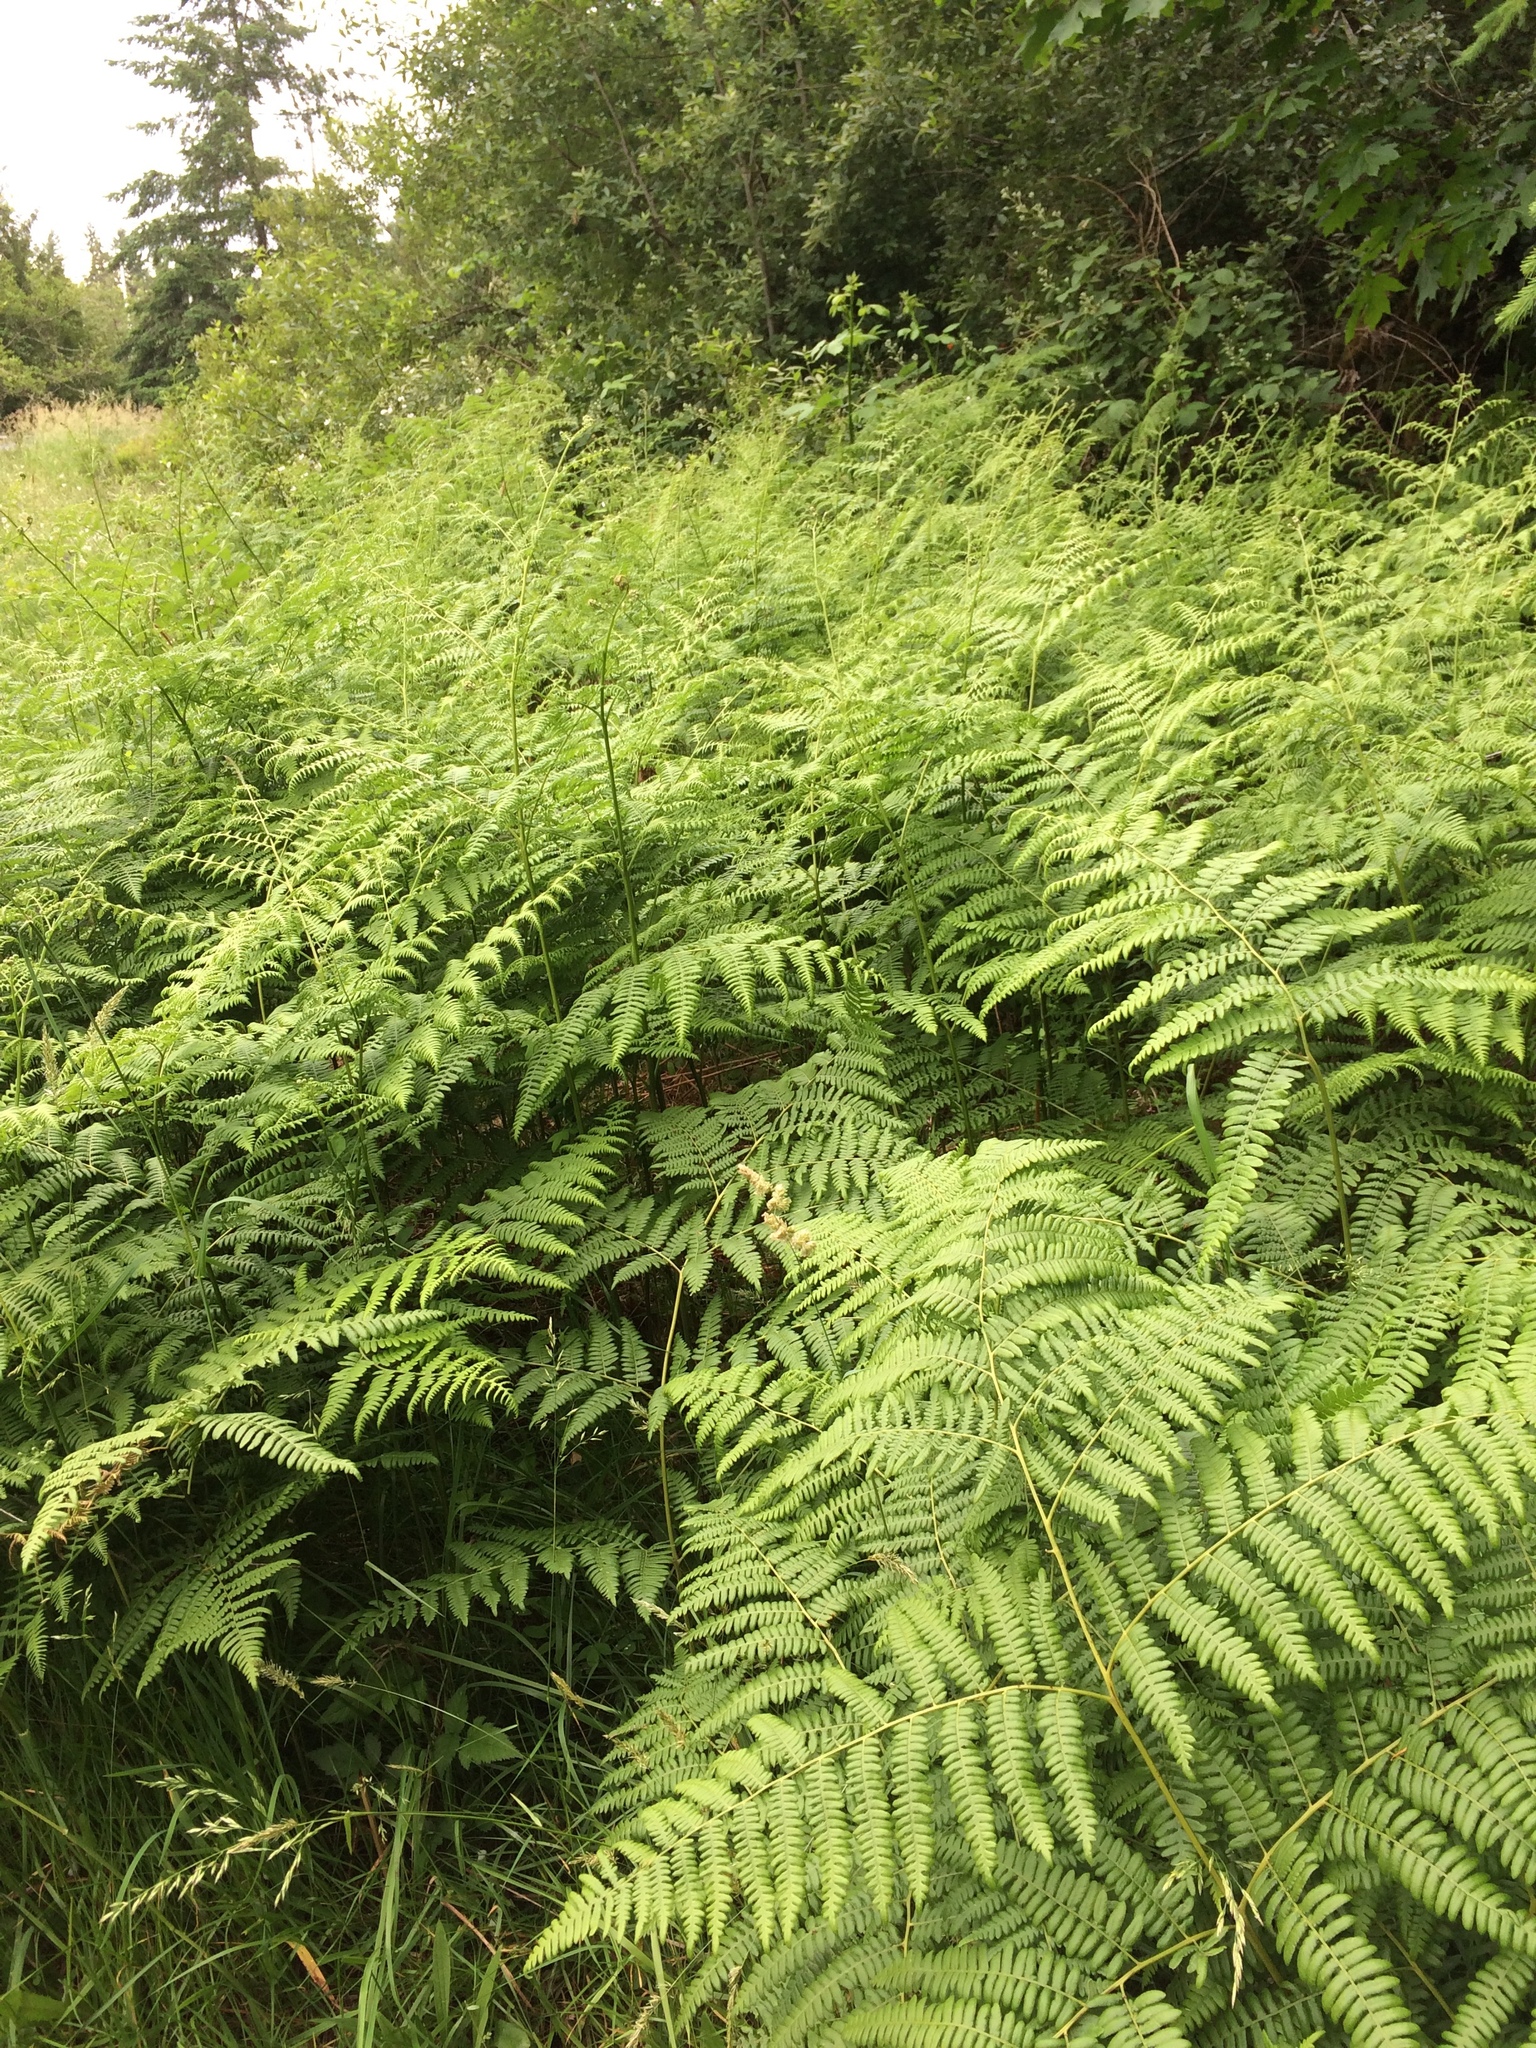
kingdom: Plantae
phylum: Tracheophyta
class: Polypodiopsida
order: Polypodiales
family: Dennstaedtiaceae
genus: Pteridium
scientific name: Pteridium aquilinum
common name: Bracken
